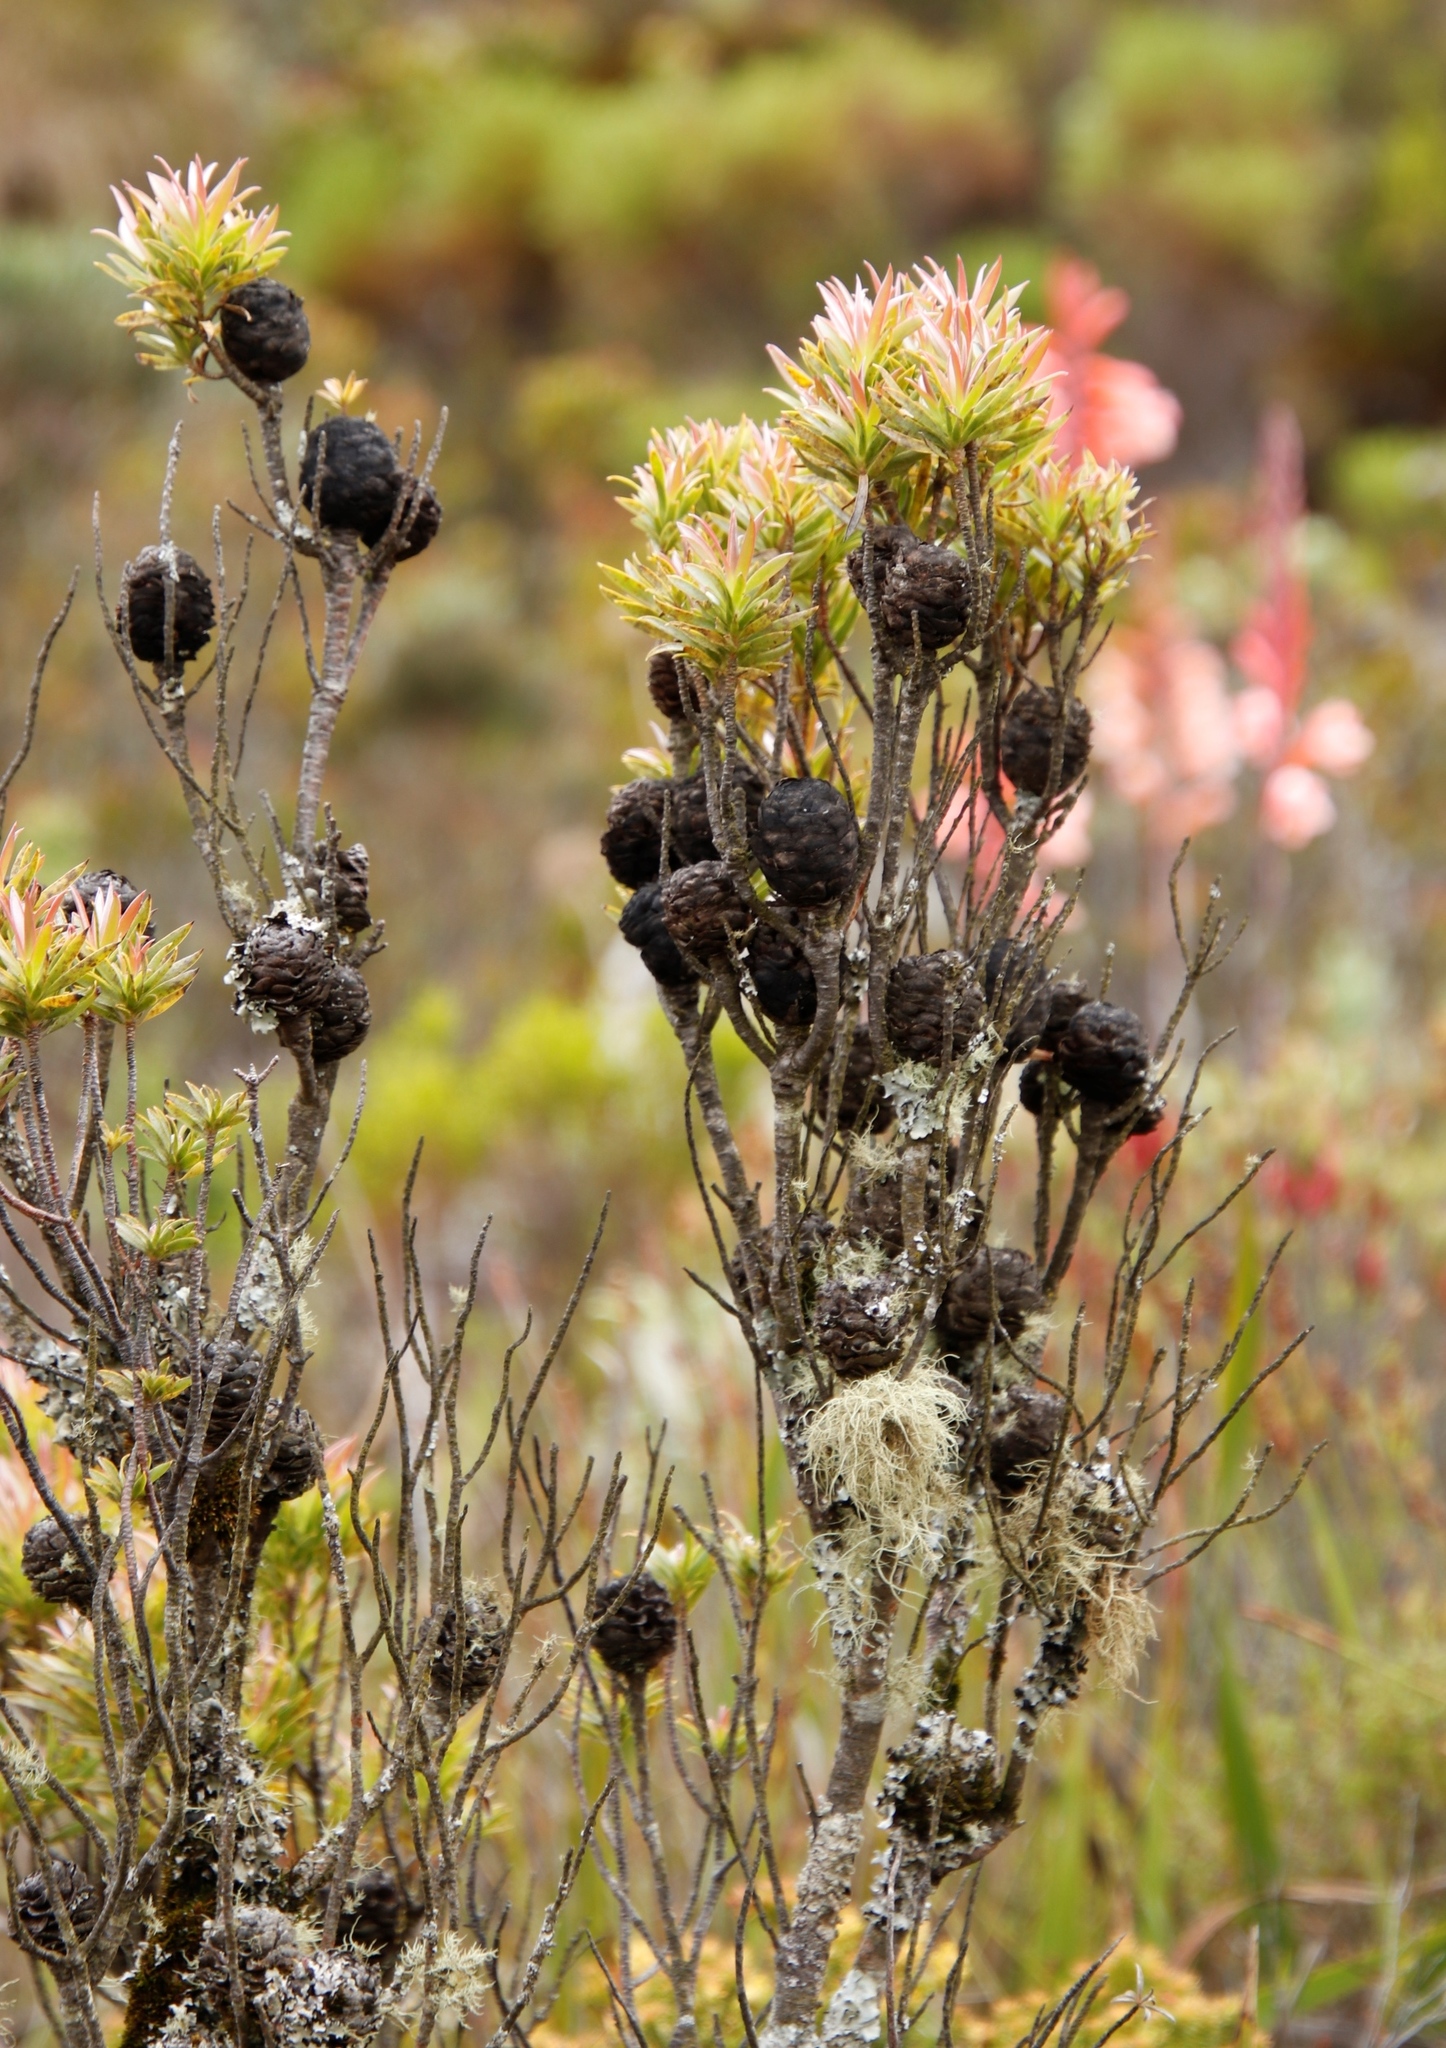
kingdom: Plantae
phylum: Tracheophyta
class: Magnoliopsida
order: Proteales
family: Proteaceae
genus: Leucadendron
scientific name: Leucadendron xanthoconus
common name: Sickle-leaf conebush
